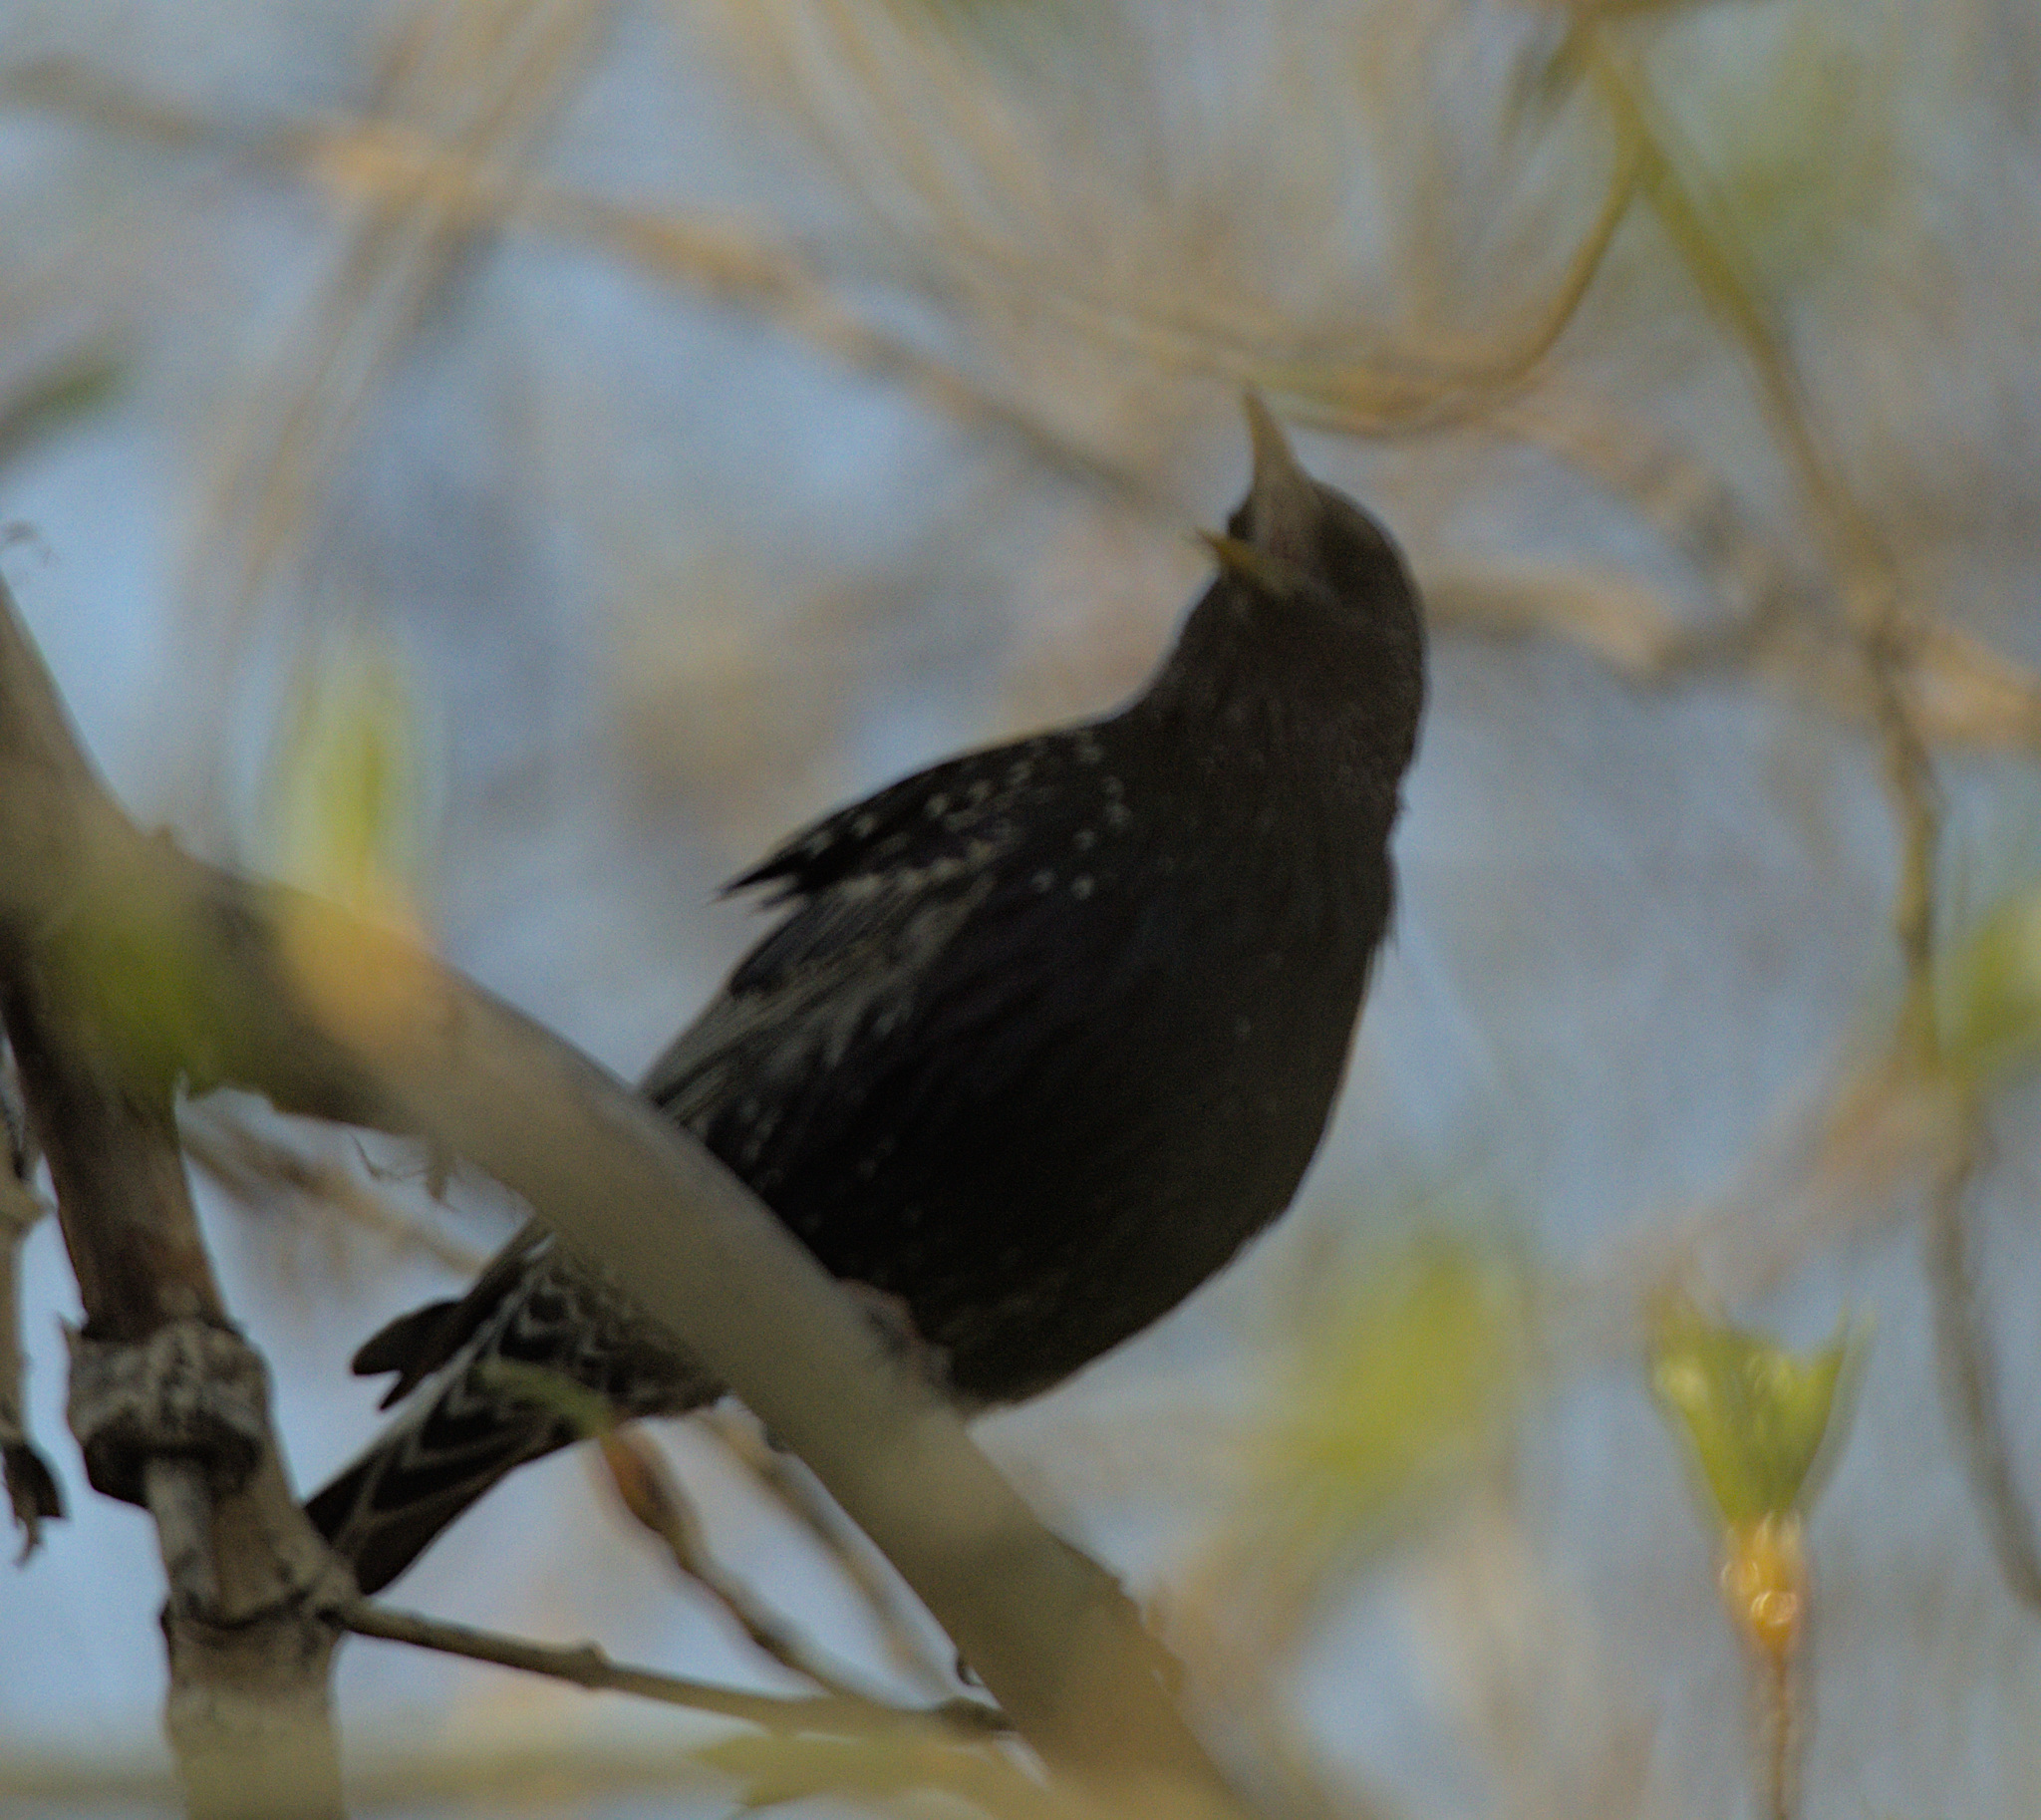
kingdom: Animalia
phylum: Chordata
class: Aves
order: Passeriformes
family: Sturnidae
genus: Sturnus
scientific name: Sturnus vulgaris
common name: Common starling
